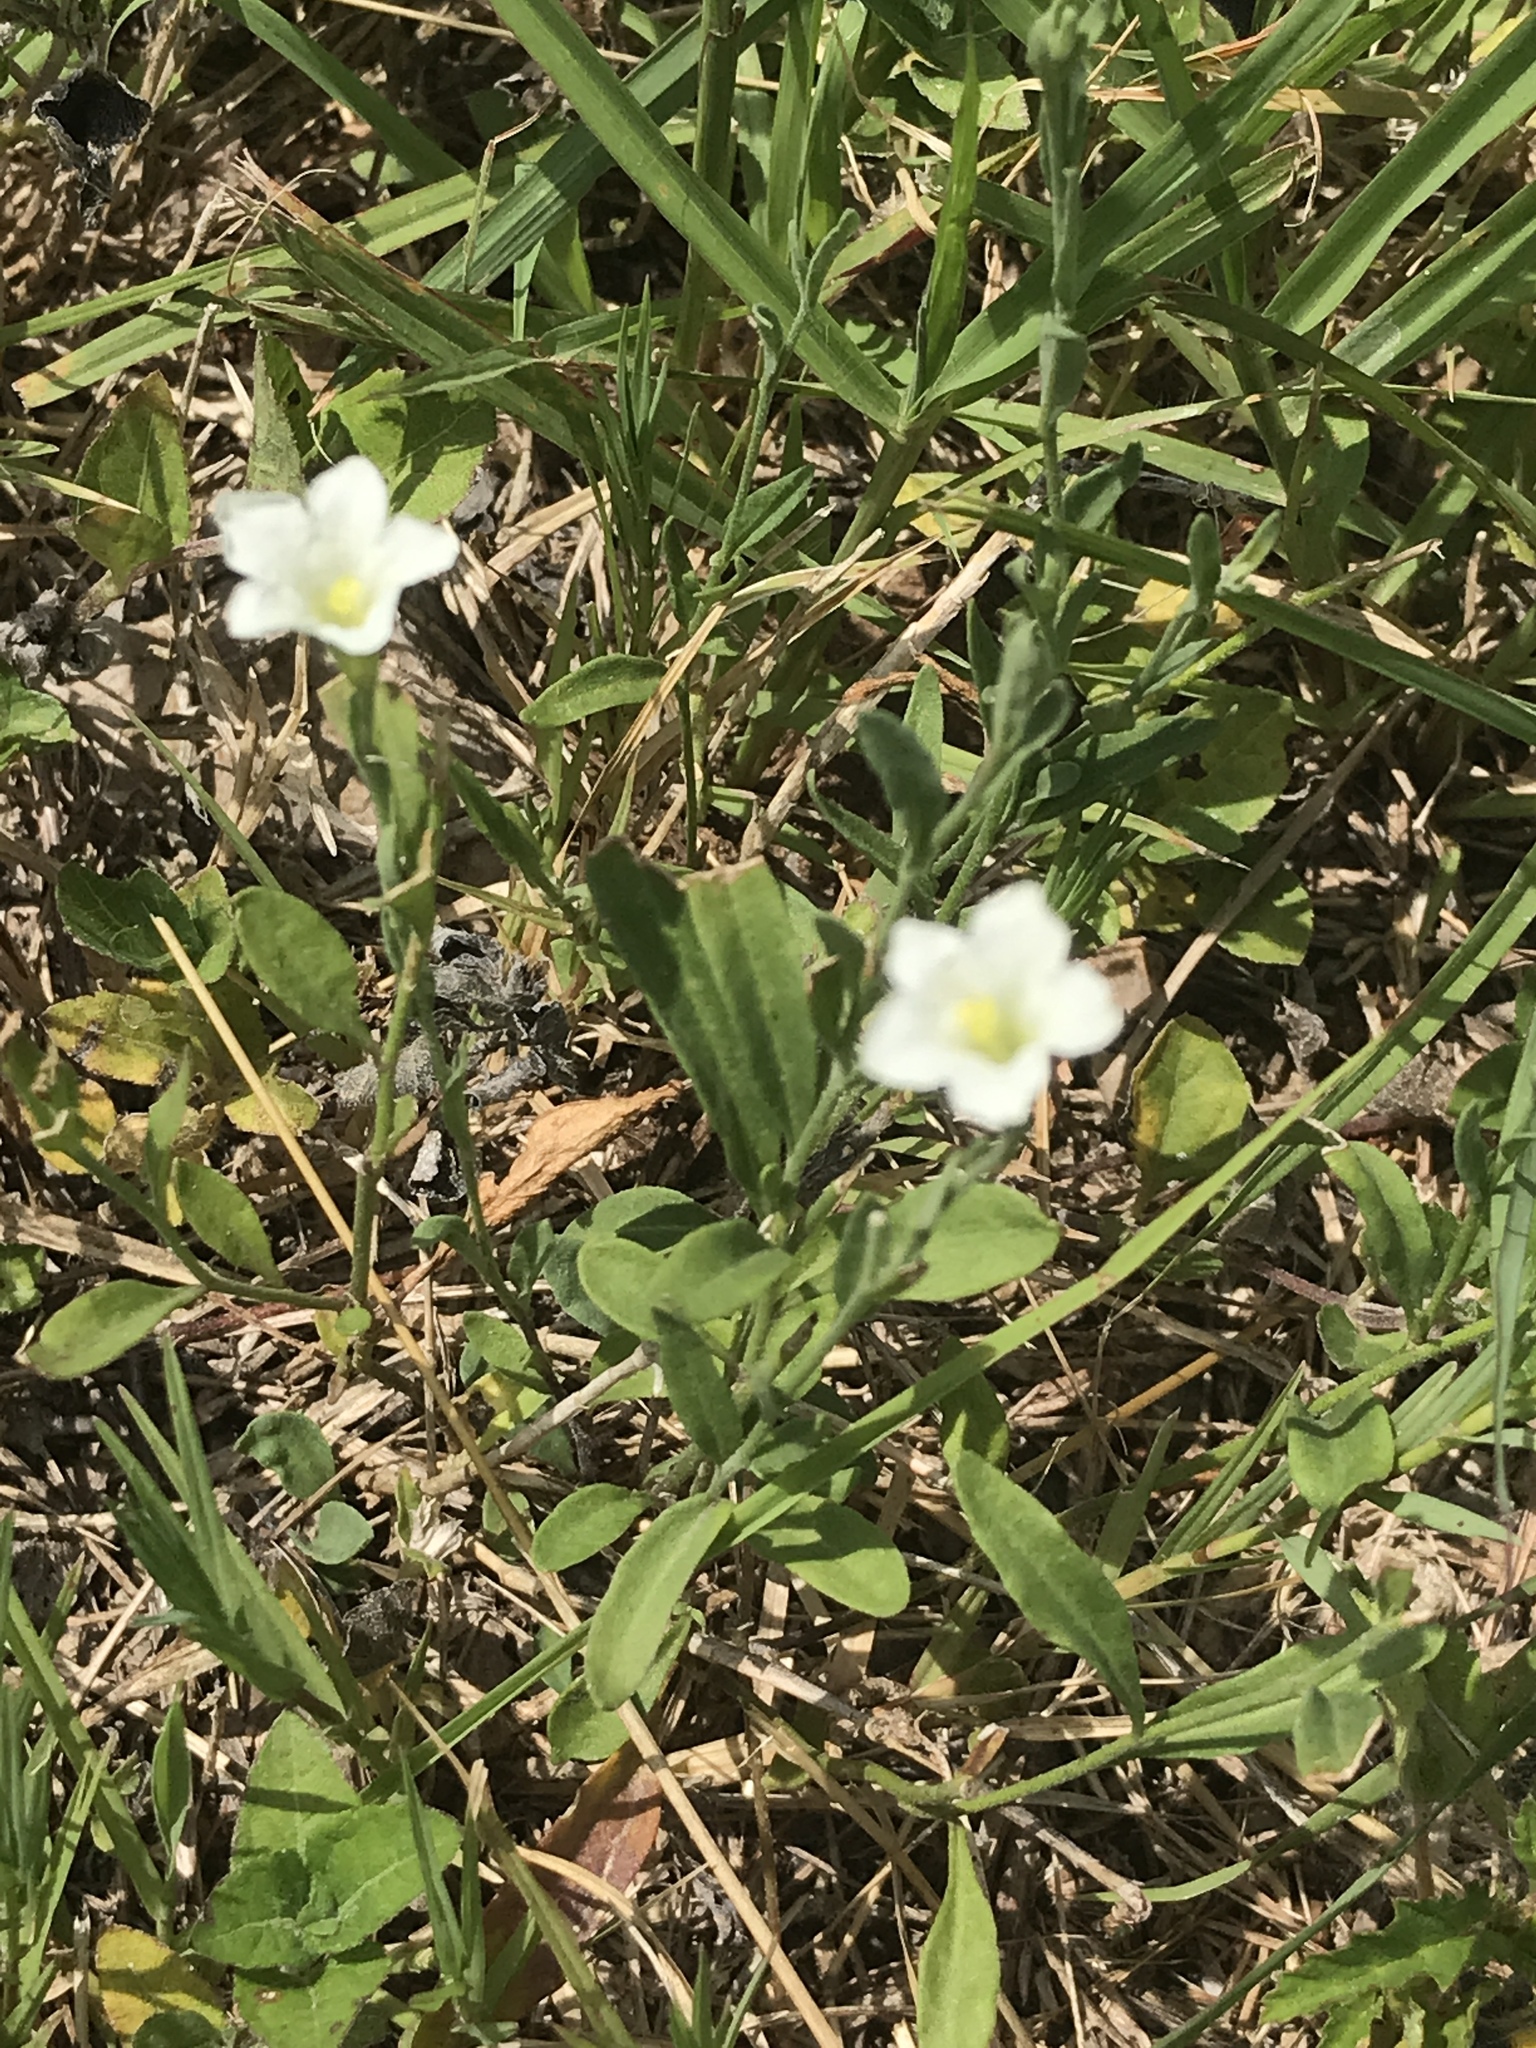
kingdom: Plantae
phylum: Tracheophyta
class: Magnoliopsida
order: Solanales
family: Solanaceae
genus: Salpiglossis
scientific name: Salpiglossis erecta
